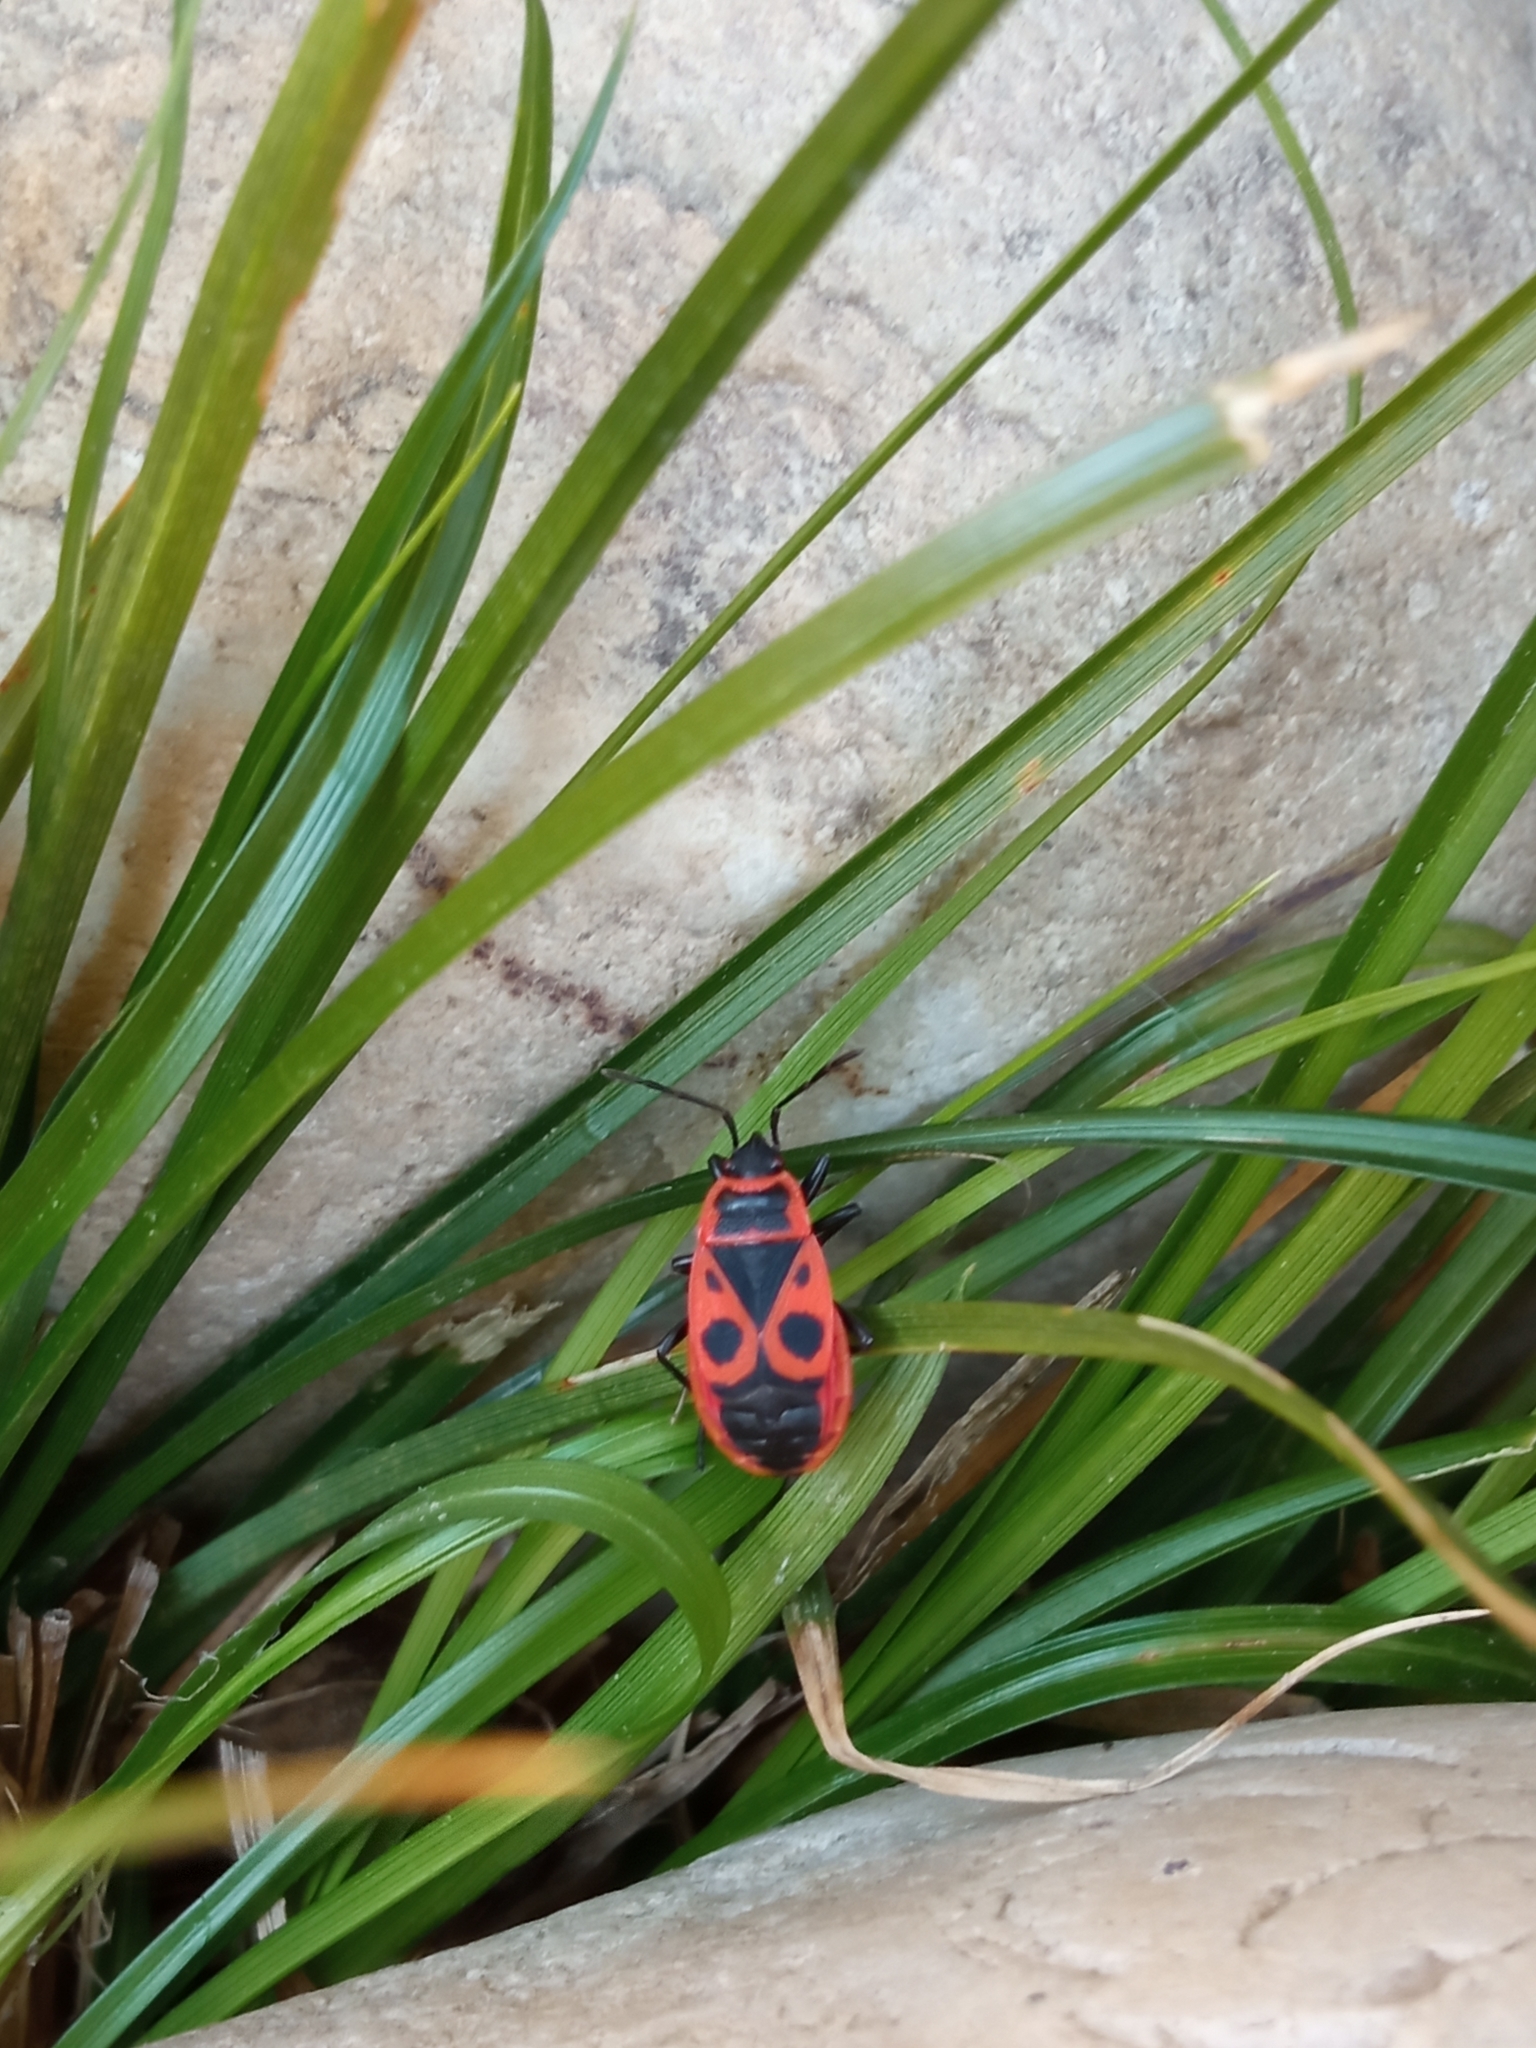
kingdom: Animalia
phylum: Arthropoda
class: Insecta
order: Hemiptera
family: Pyrrhocoridae
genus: Pyrrhocoris
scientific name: Pyrrhocoris apterus
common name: Firebug
